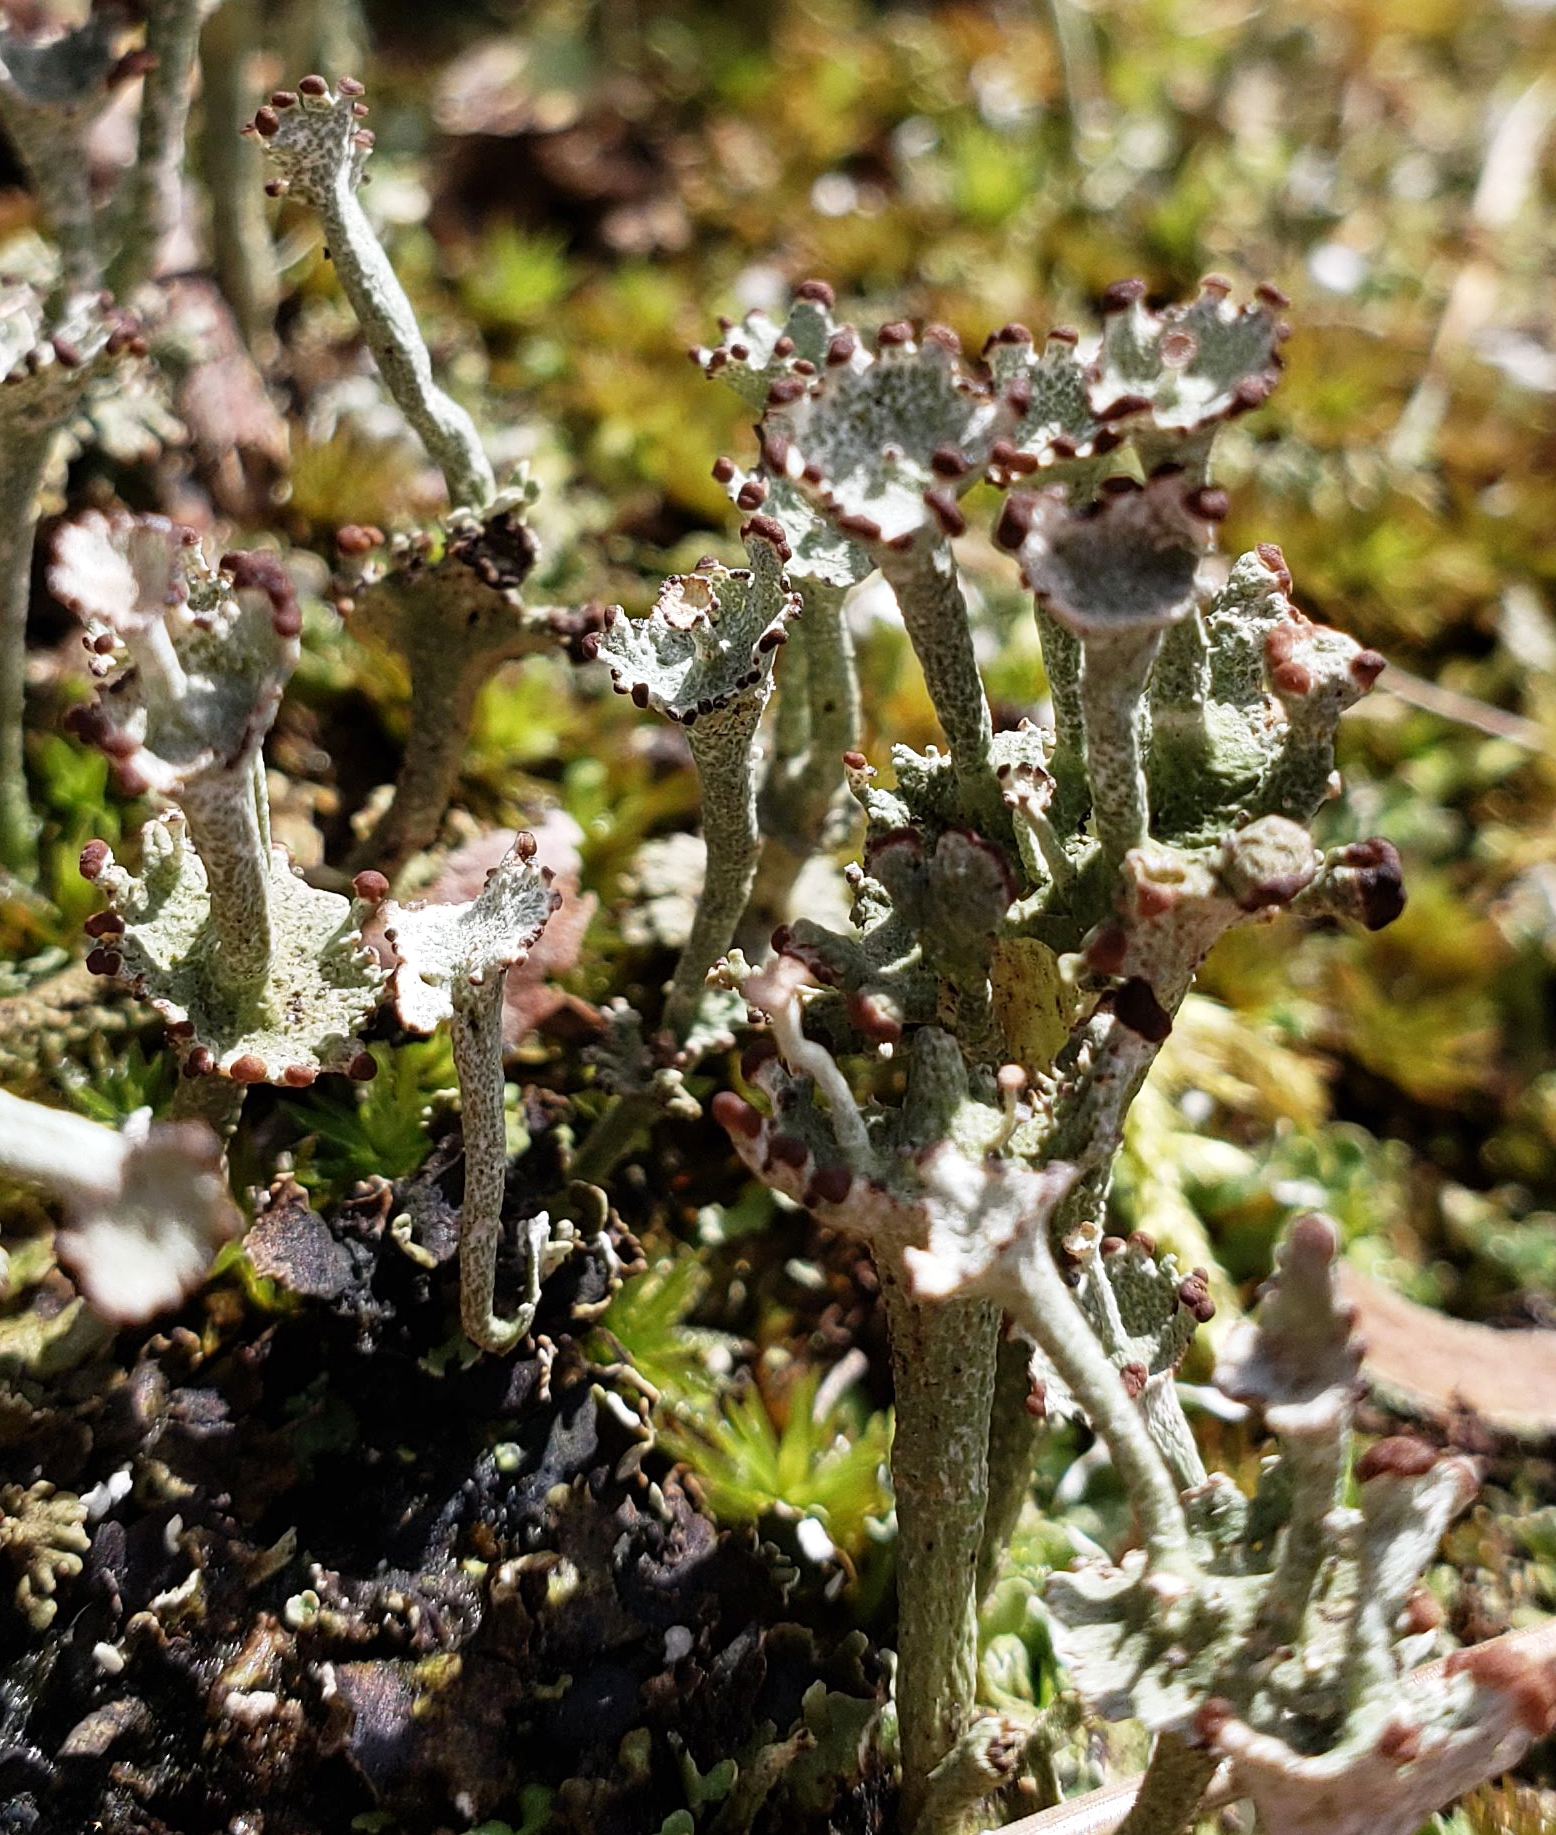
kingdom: Fungi
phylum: Ascomycota
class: Lecanoromycetes
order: Lecanorales
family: Cladoniaceae
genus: Cladonia
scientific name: Cladonia cervicornis
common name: Browned pixie-cup lichen
